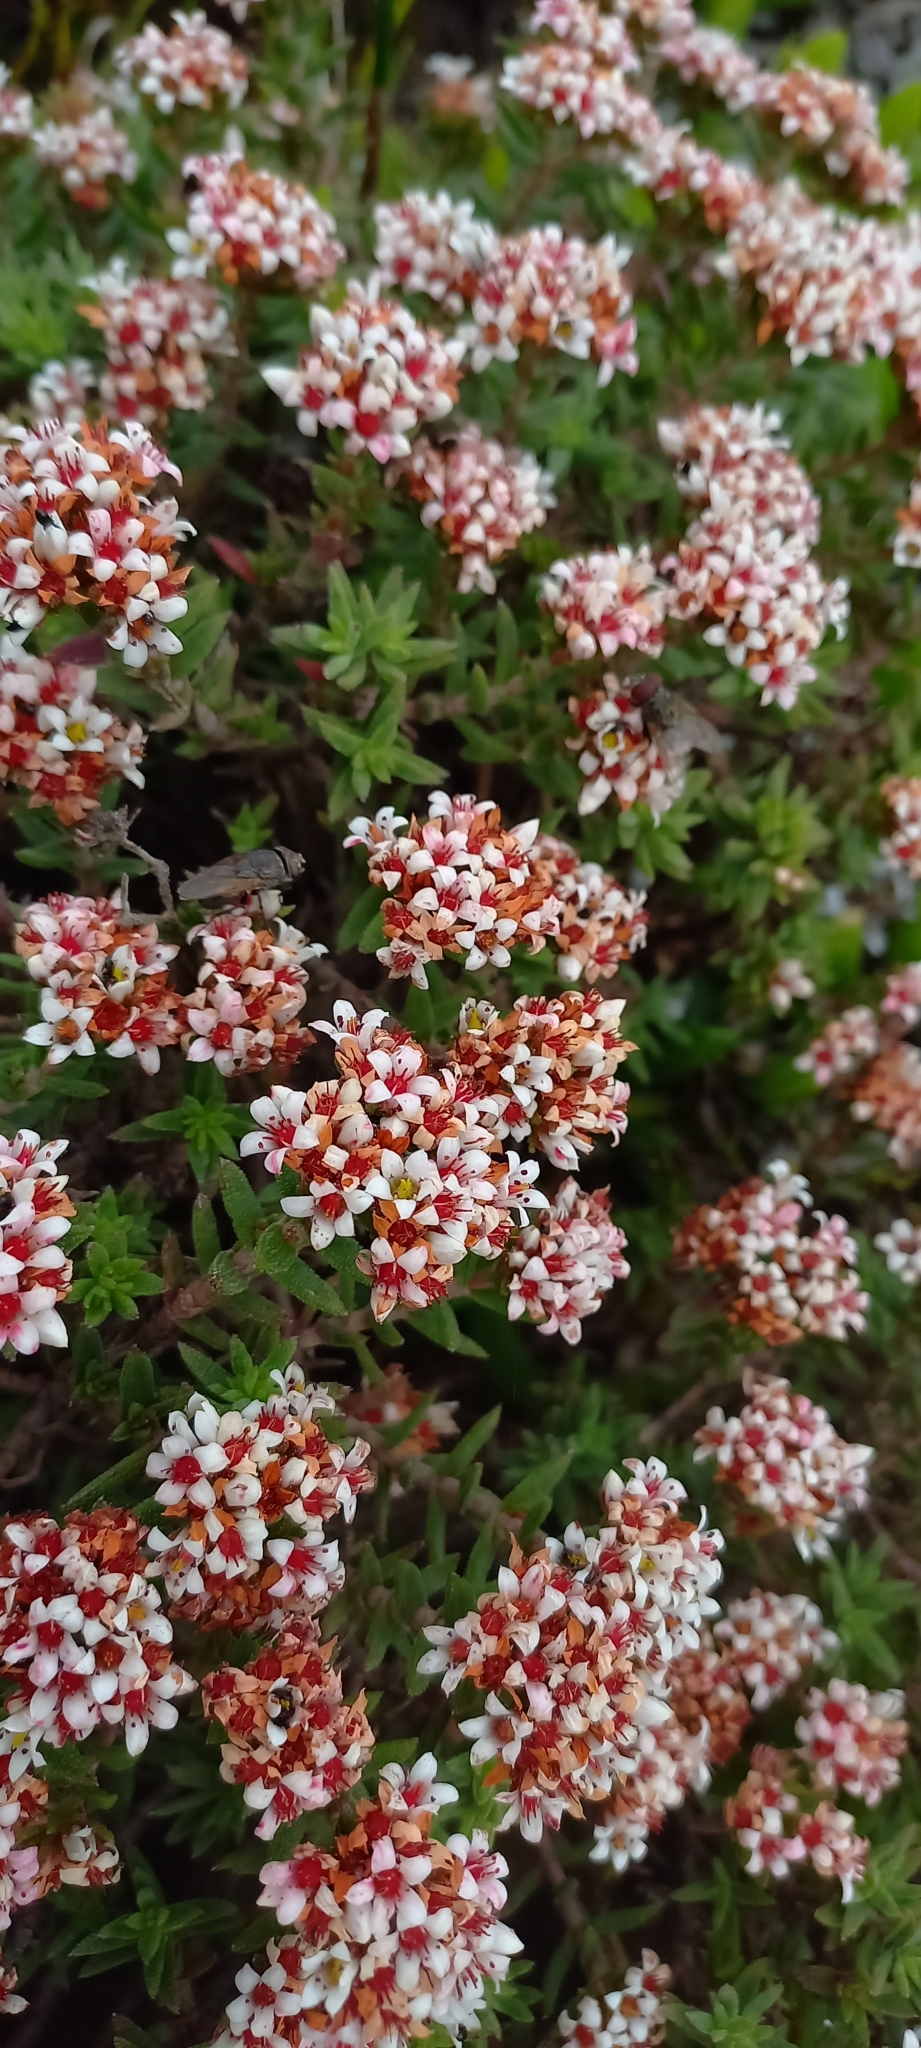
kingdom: Plantae
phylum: Tracheophyta
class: Magnoliopsida
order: Saxifragales
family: Crassulaceae
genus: Crassula
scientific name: Crassula pruinosa
